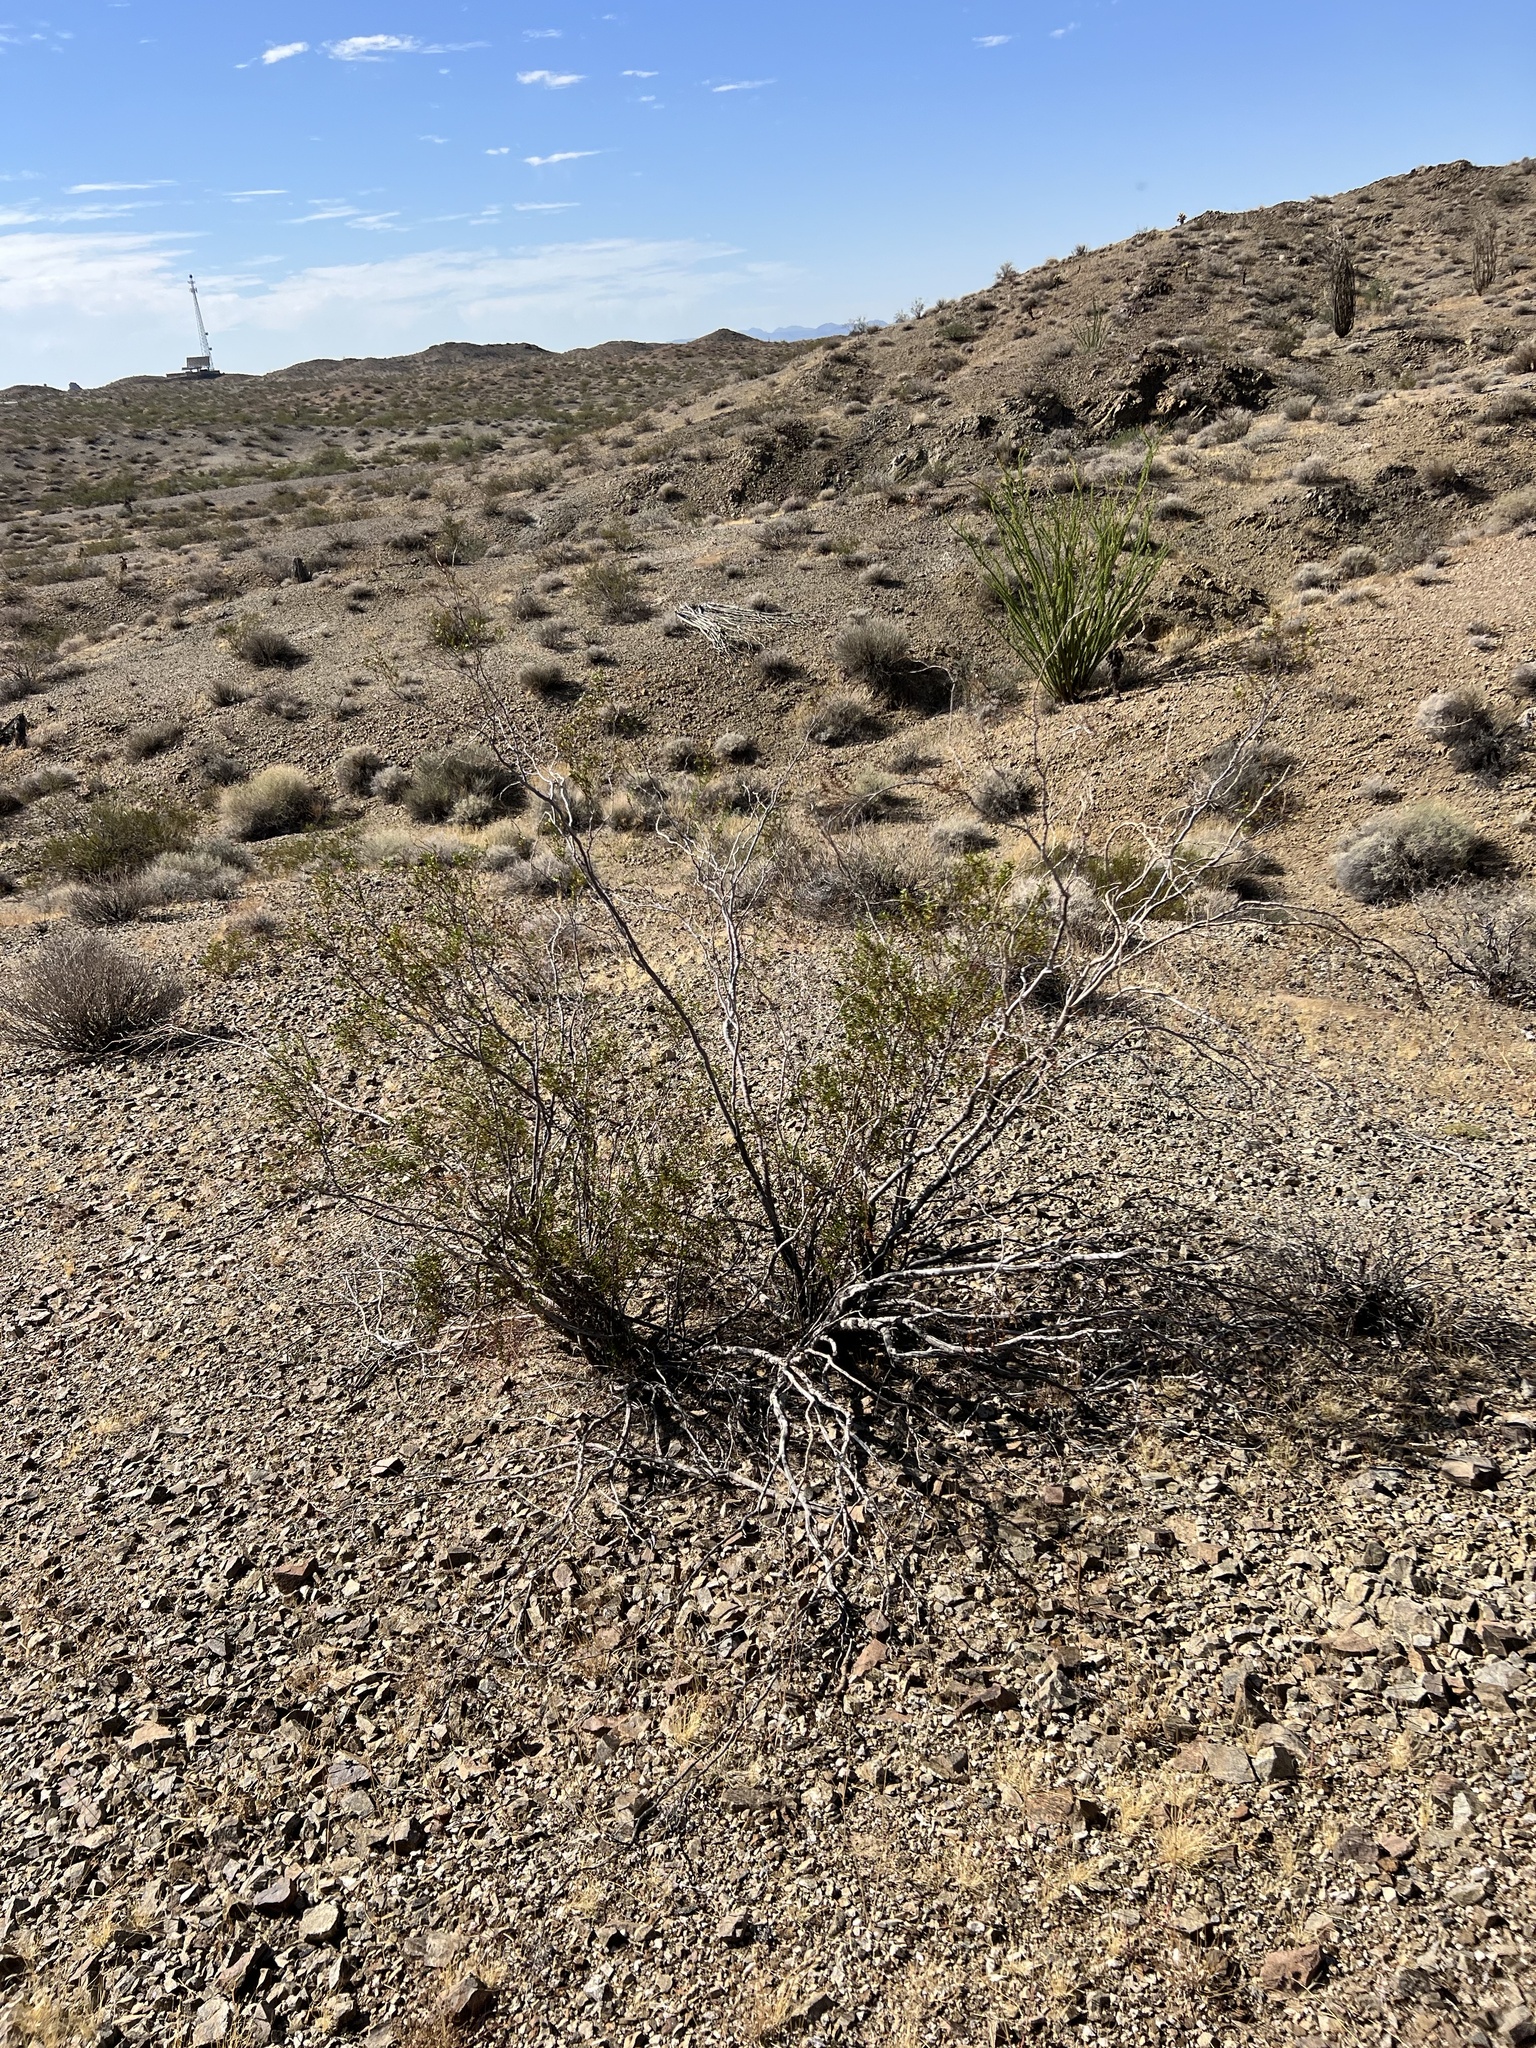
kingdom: Plantae
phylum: Tracheophyta
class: Magnoliopsida
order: Zygophyllales
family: Zygophyllaceae
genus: Larrea
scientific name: Larrea tridentata
